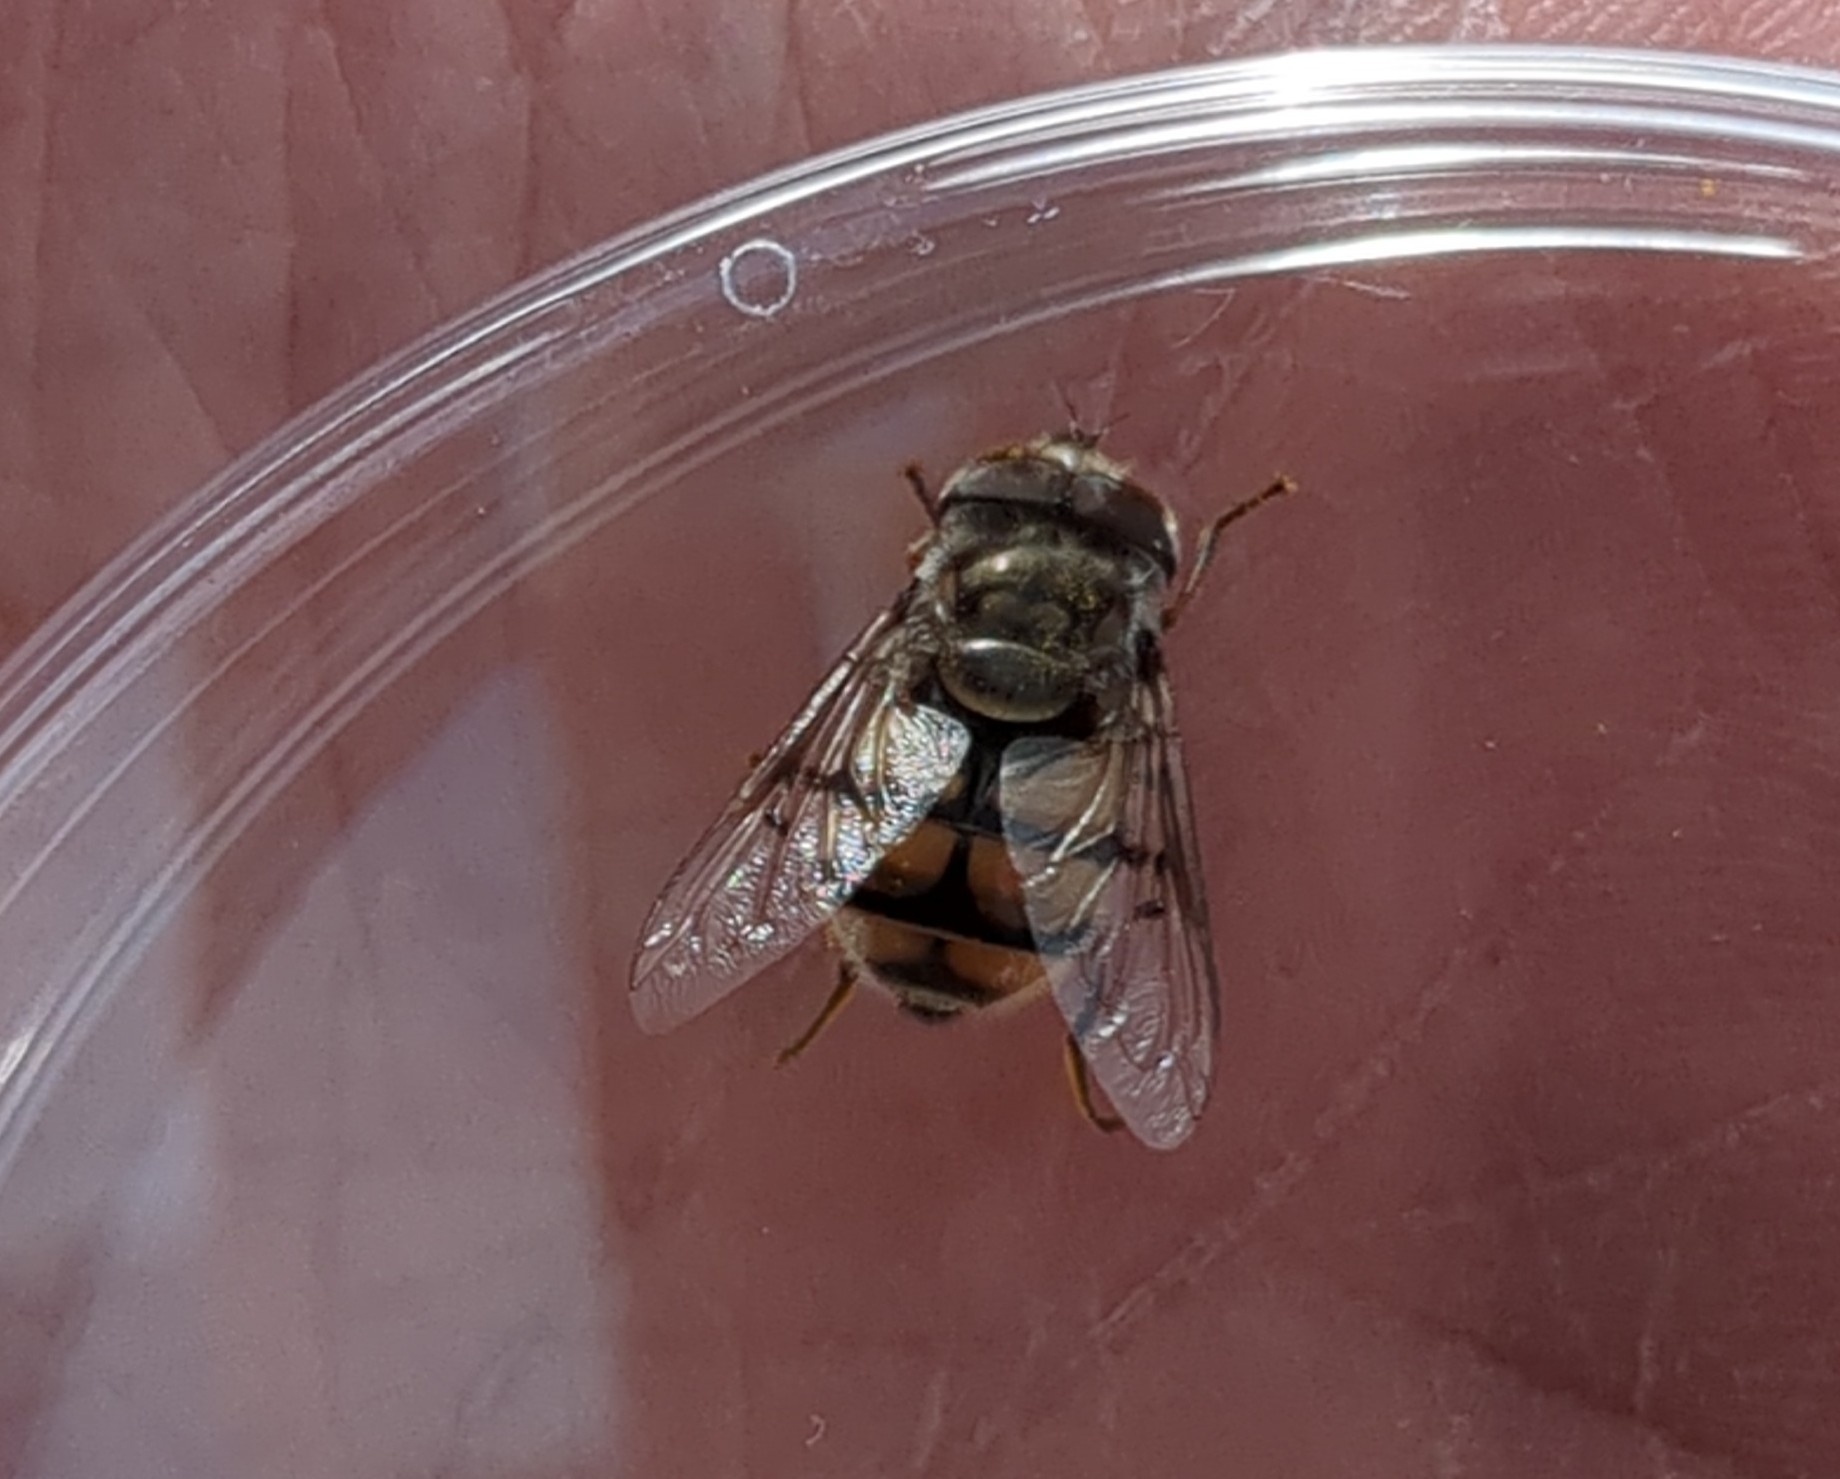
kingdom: Animalia
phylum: Arthropoda
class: Insecta
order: Diptera
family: Syrphidae
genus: Copestylum
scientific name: Copestylum avidum
